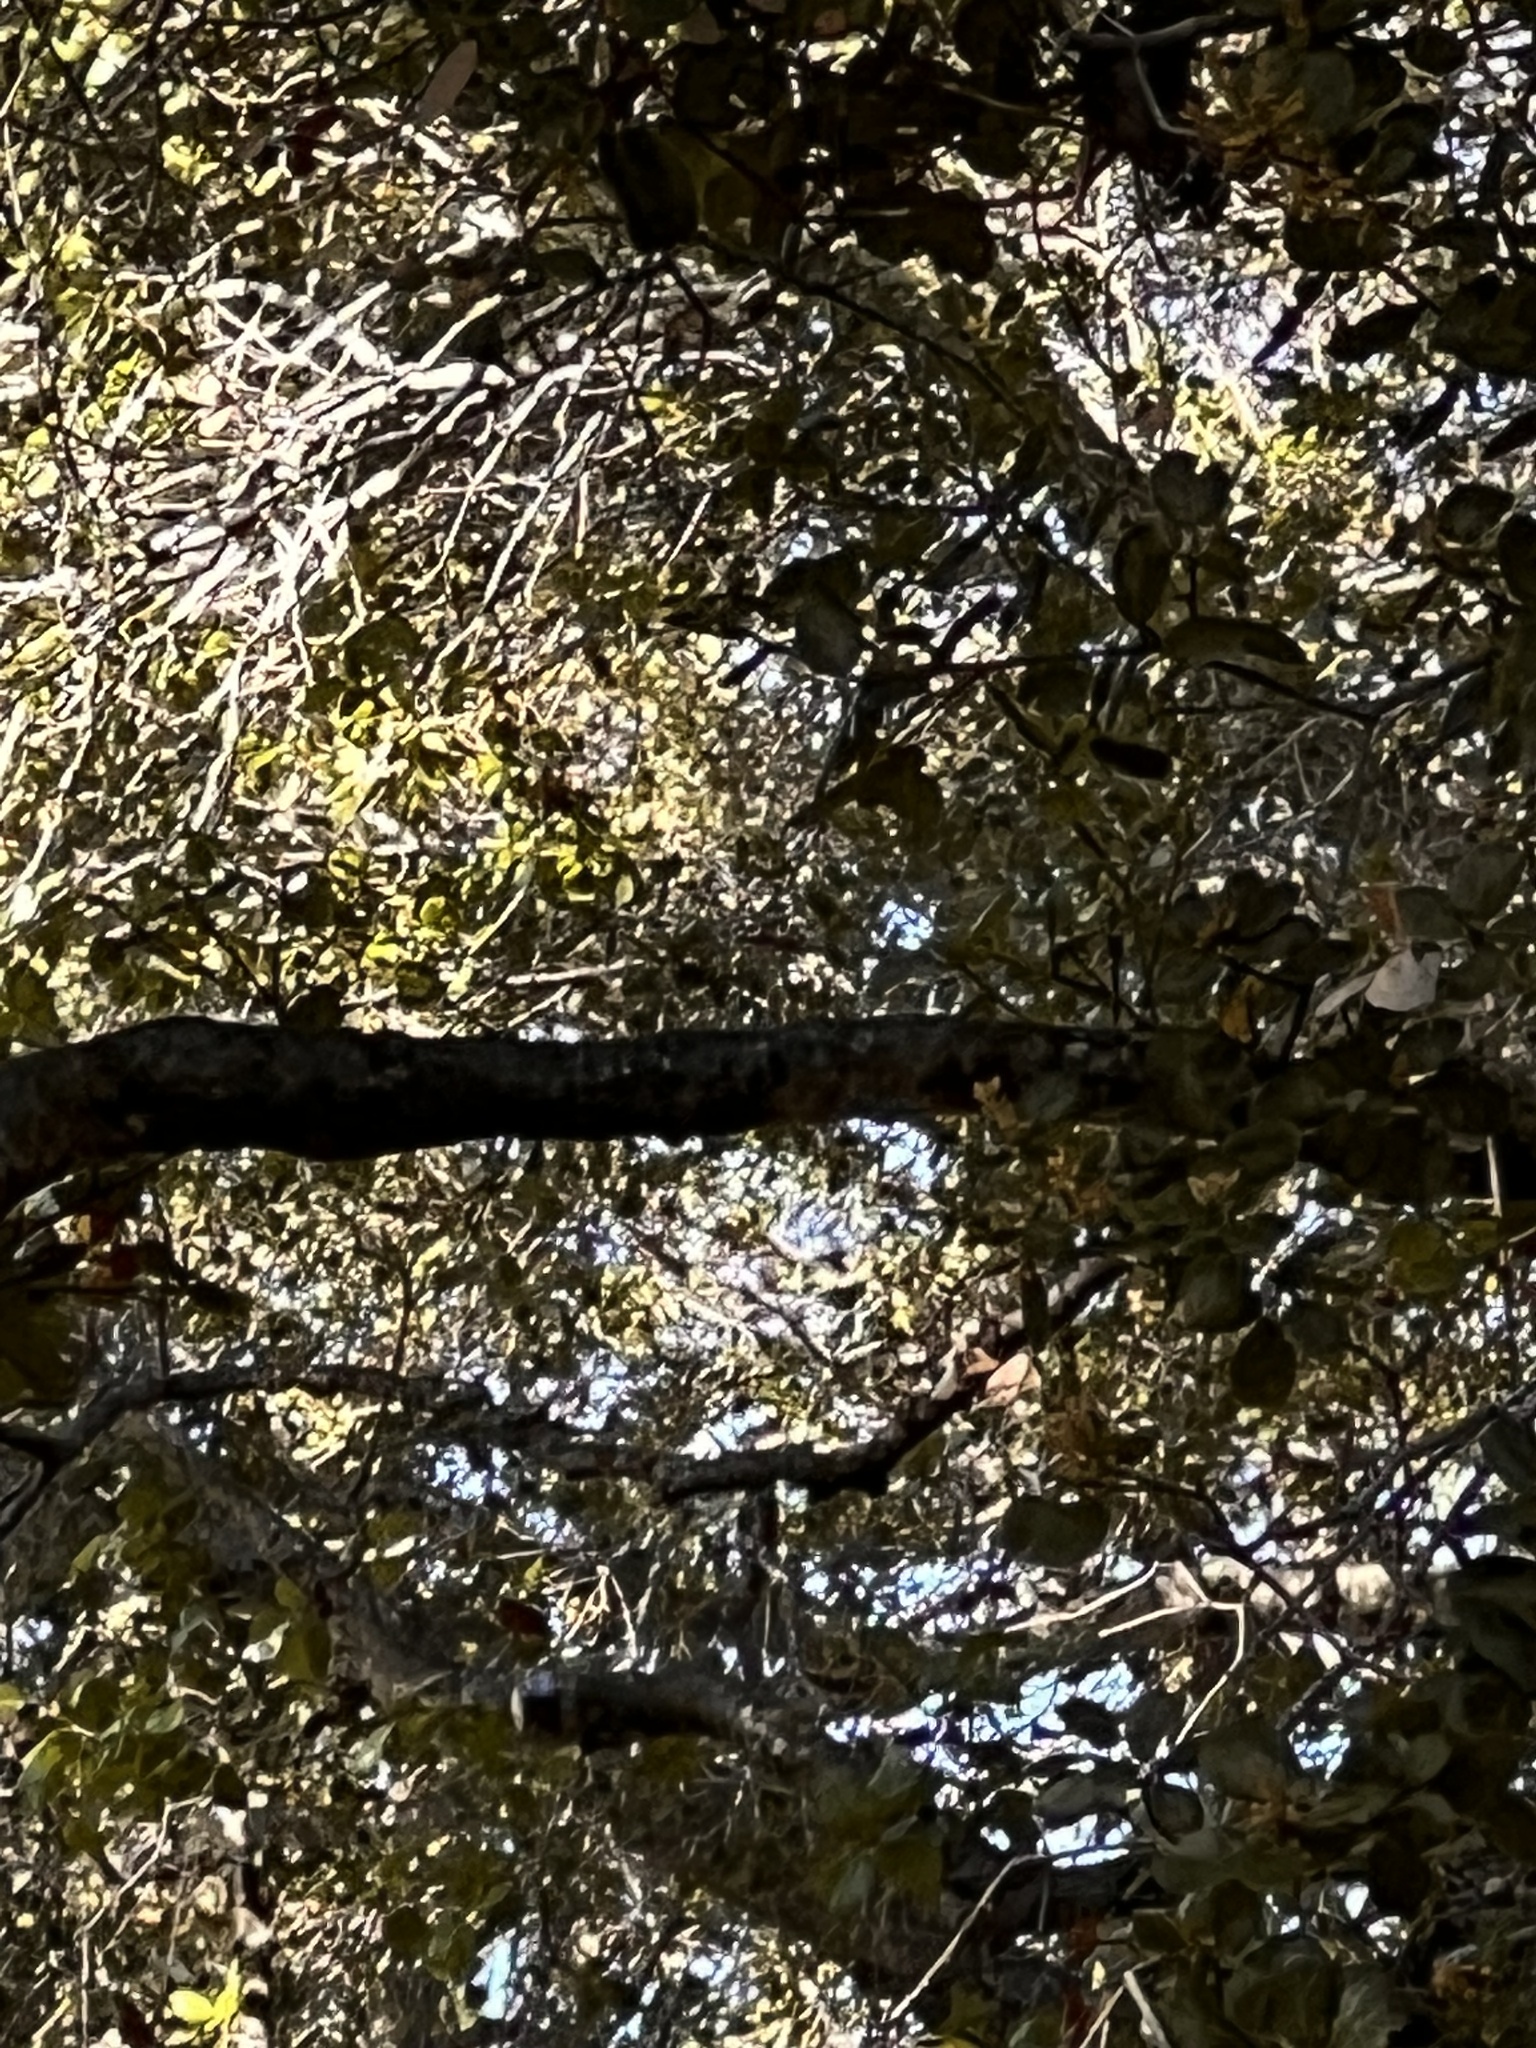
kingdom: Animalia
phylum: Chordata
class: Aves
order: Passeriformes
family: Turdidae
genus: Sialia
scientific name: Sialia mexicana
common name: Western bluebird
